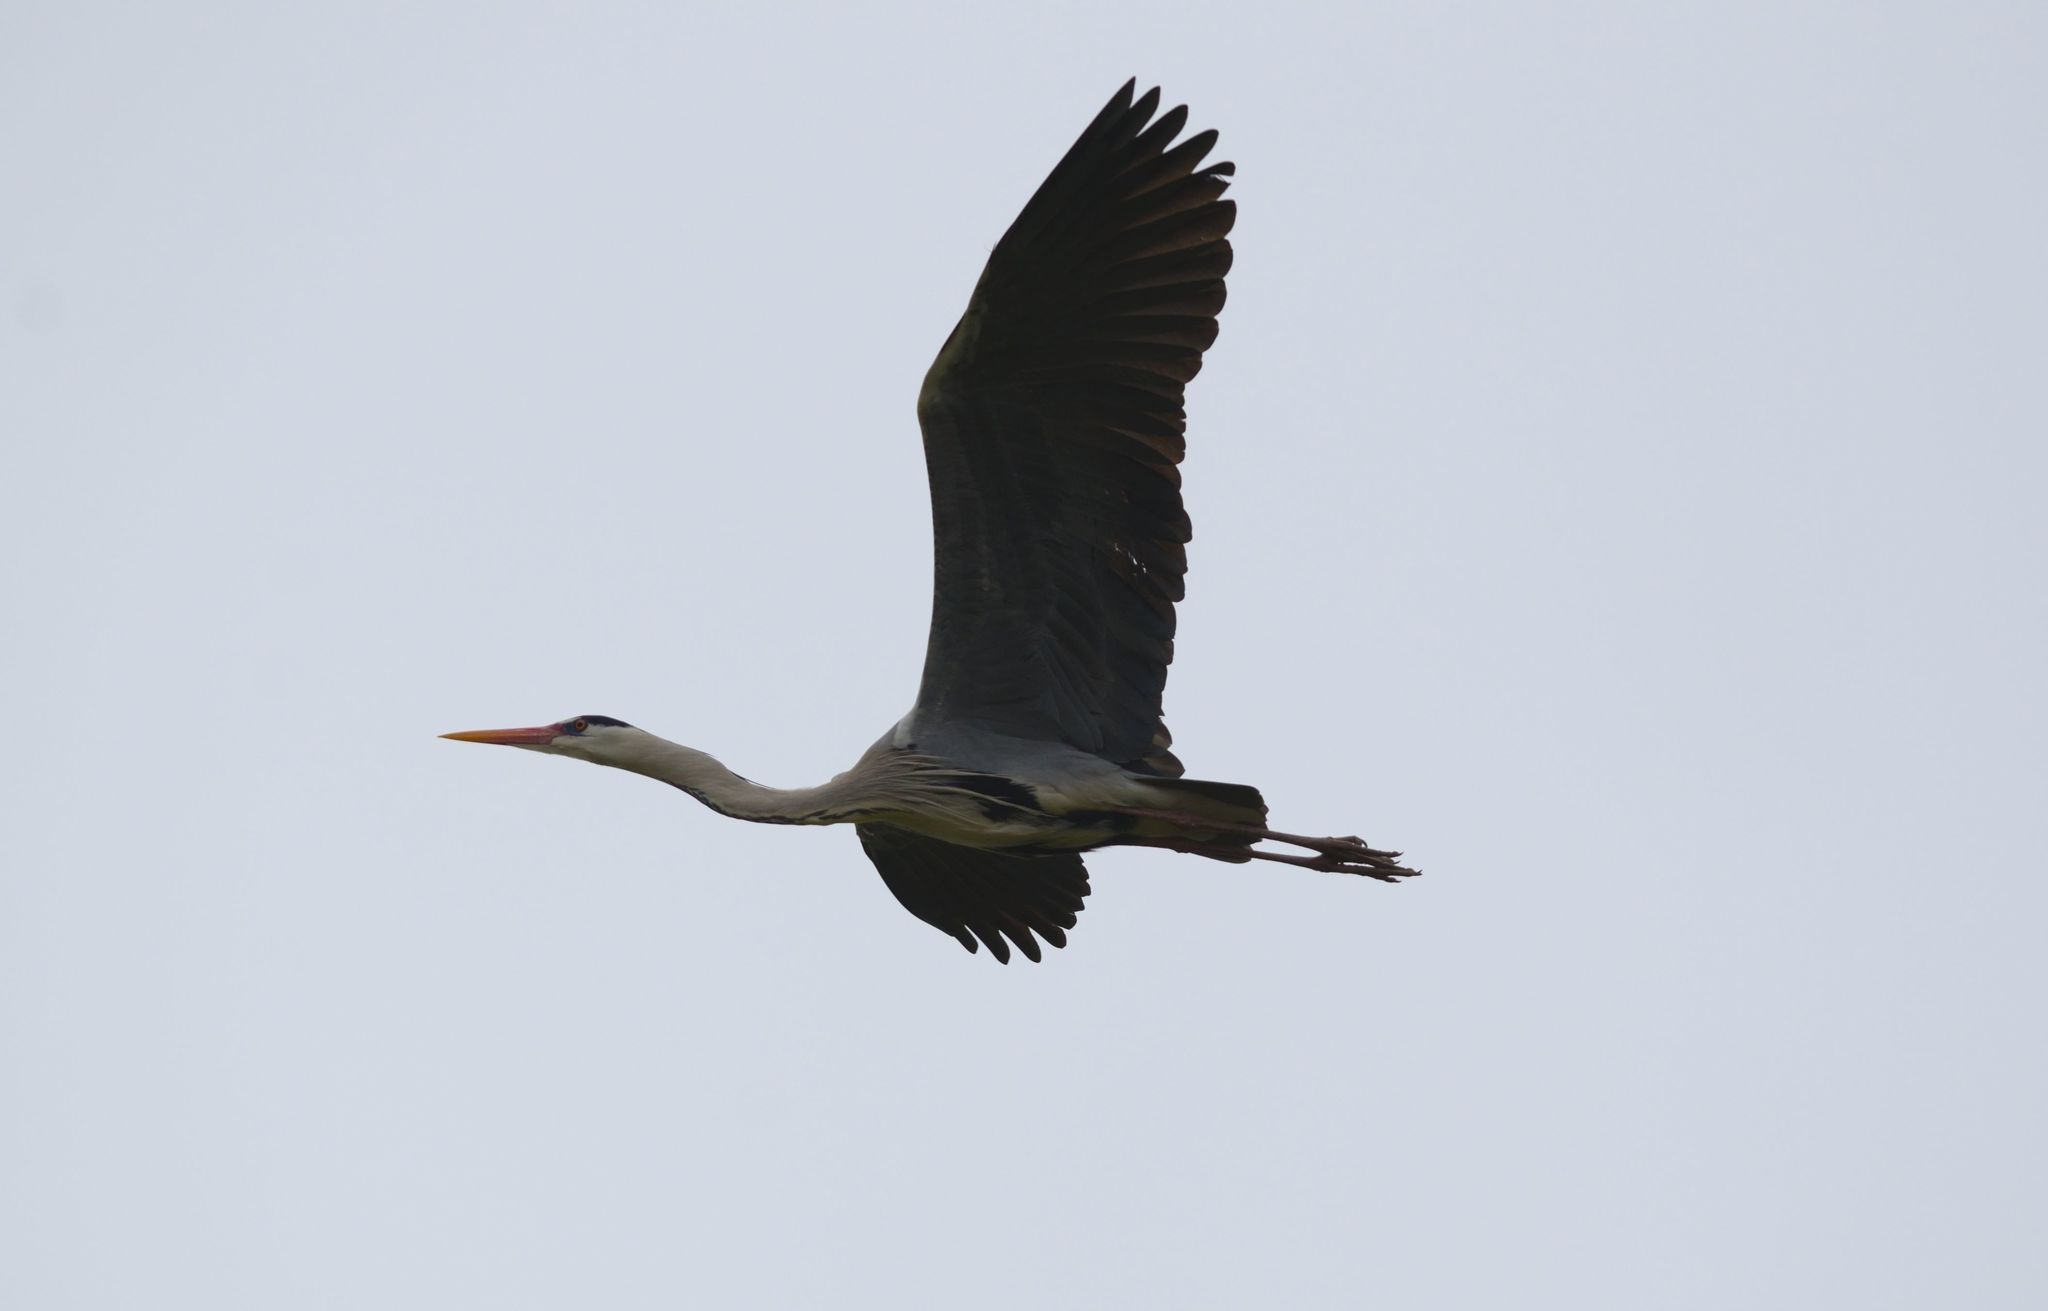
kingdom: Animalia
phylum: Chordata
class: Aves
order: Pelecaniformes
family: Ardeidae
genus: Ardea
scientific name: Ardea cinerea
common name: Grey heron
